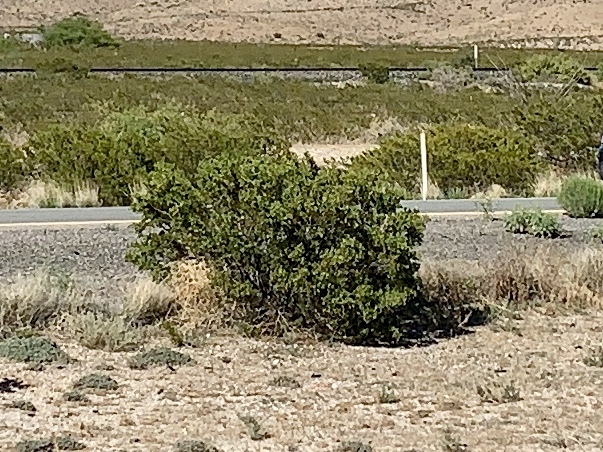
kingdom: Plantae
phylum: Tracheophyta
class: Magnoliopsida
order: Zygophyllales
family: Zygophyllaceae
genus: Larrea
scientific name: Larrea tridentata
